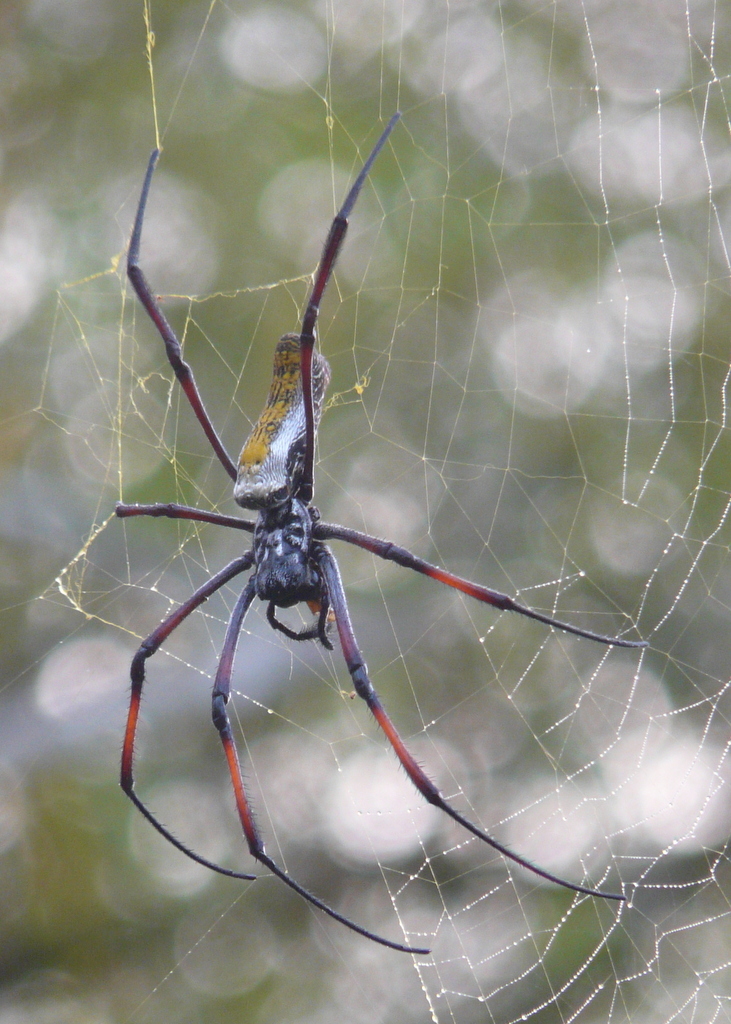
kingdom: Animalia
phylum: Arthropoda
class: Arachnida
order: Araneae
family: Araneidae
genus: Trichonephila
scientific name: Trichonephila inaurata
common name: Red-legged golden orb weaver
